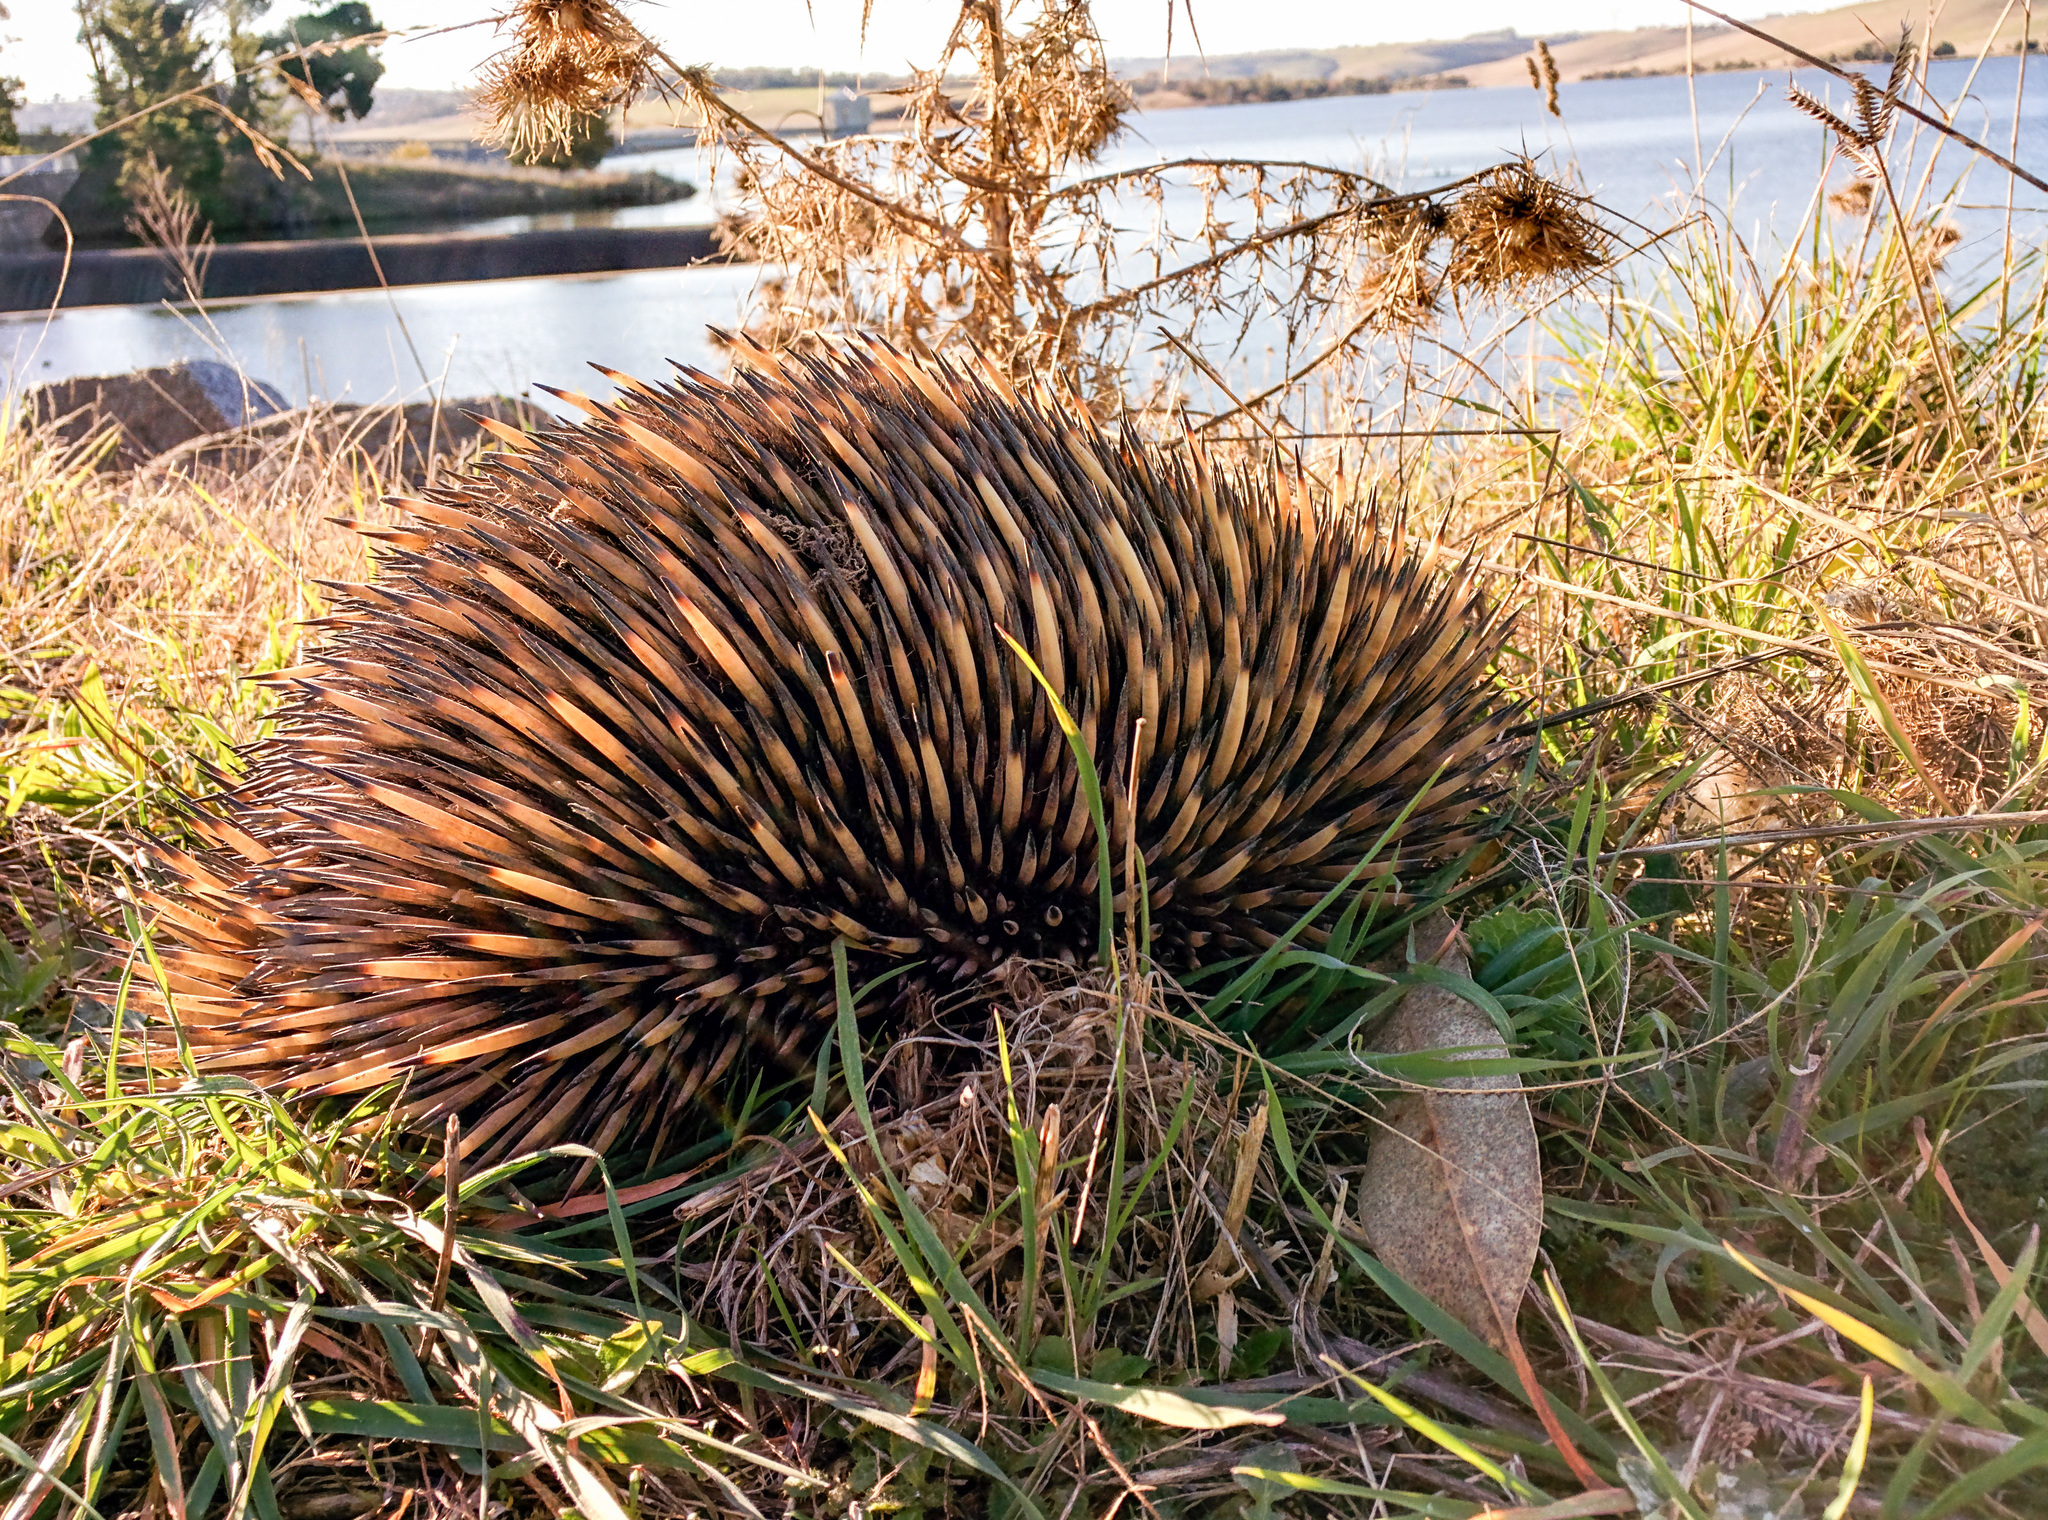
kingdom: Animalia
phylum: Chordata
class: Mammalia
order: Monotremata
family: Tachyglossidae
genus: Tachyglossus
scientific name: Tachyglossus aculeatus
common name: Short-beaked echidna
